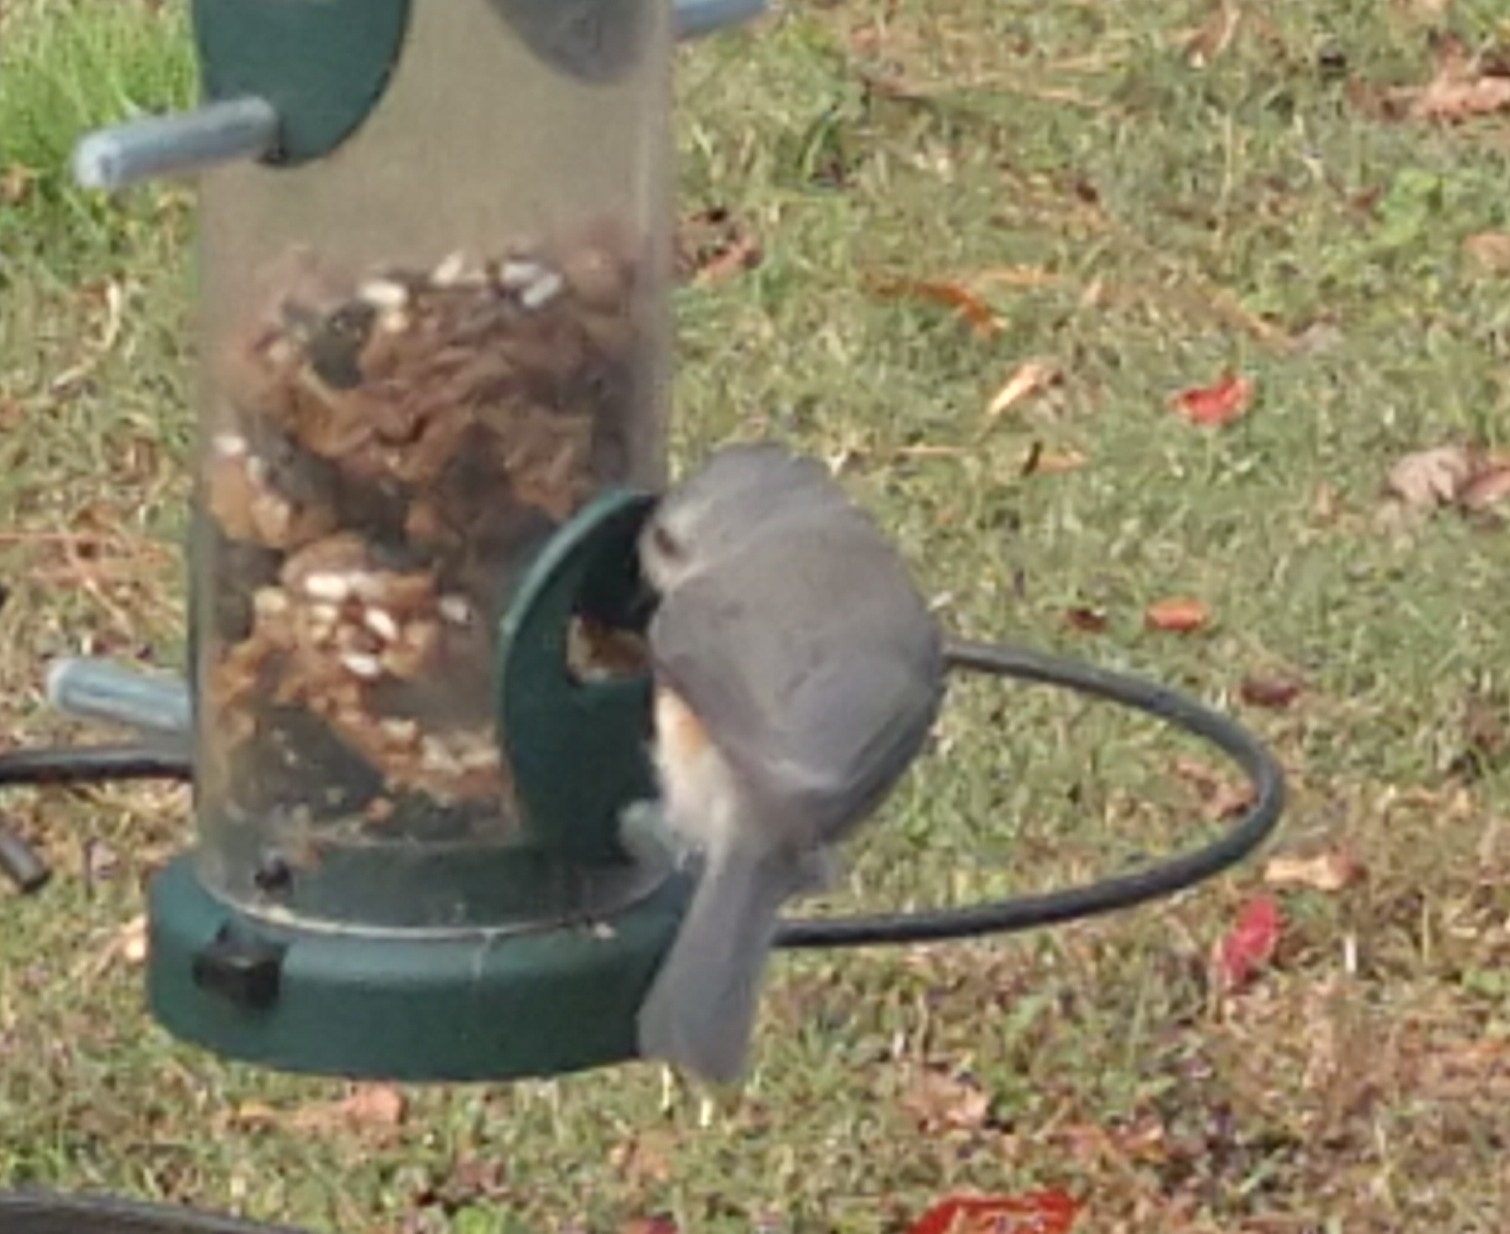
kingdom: Animalia
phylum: Chordata
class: Aves
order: Passeriformes
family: Paridae
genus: Baeolophus
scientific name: Baeolophus bicolor
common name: Tufted titmouse
